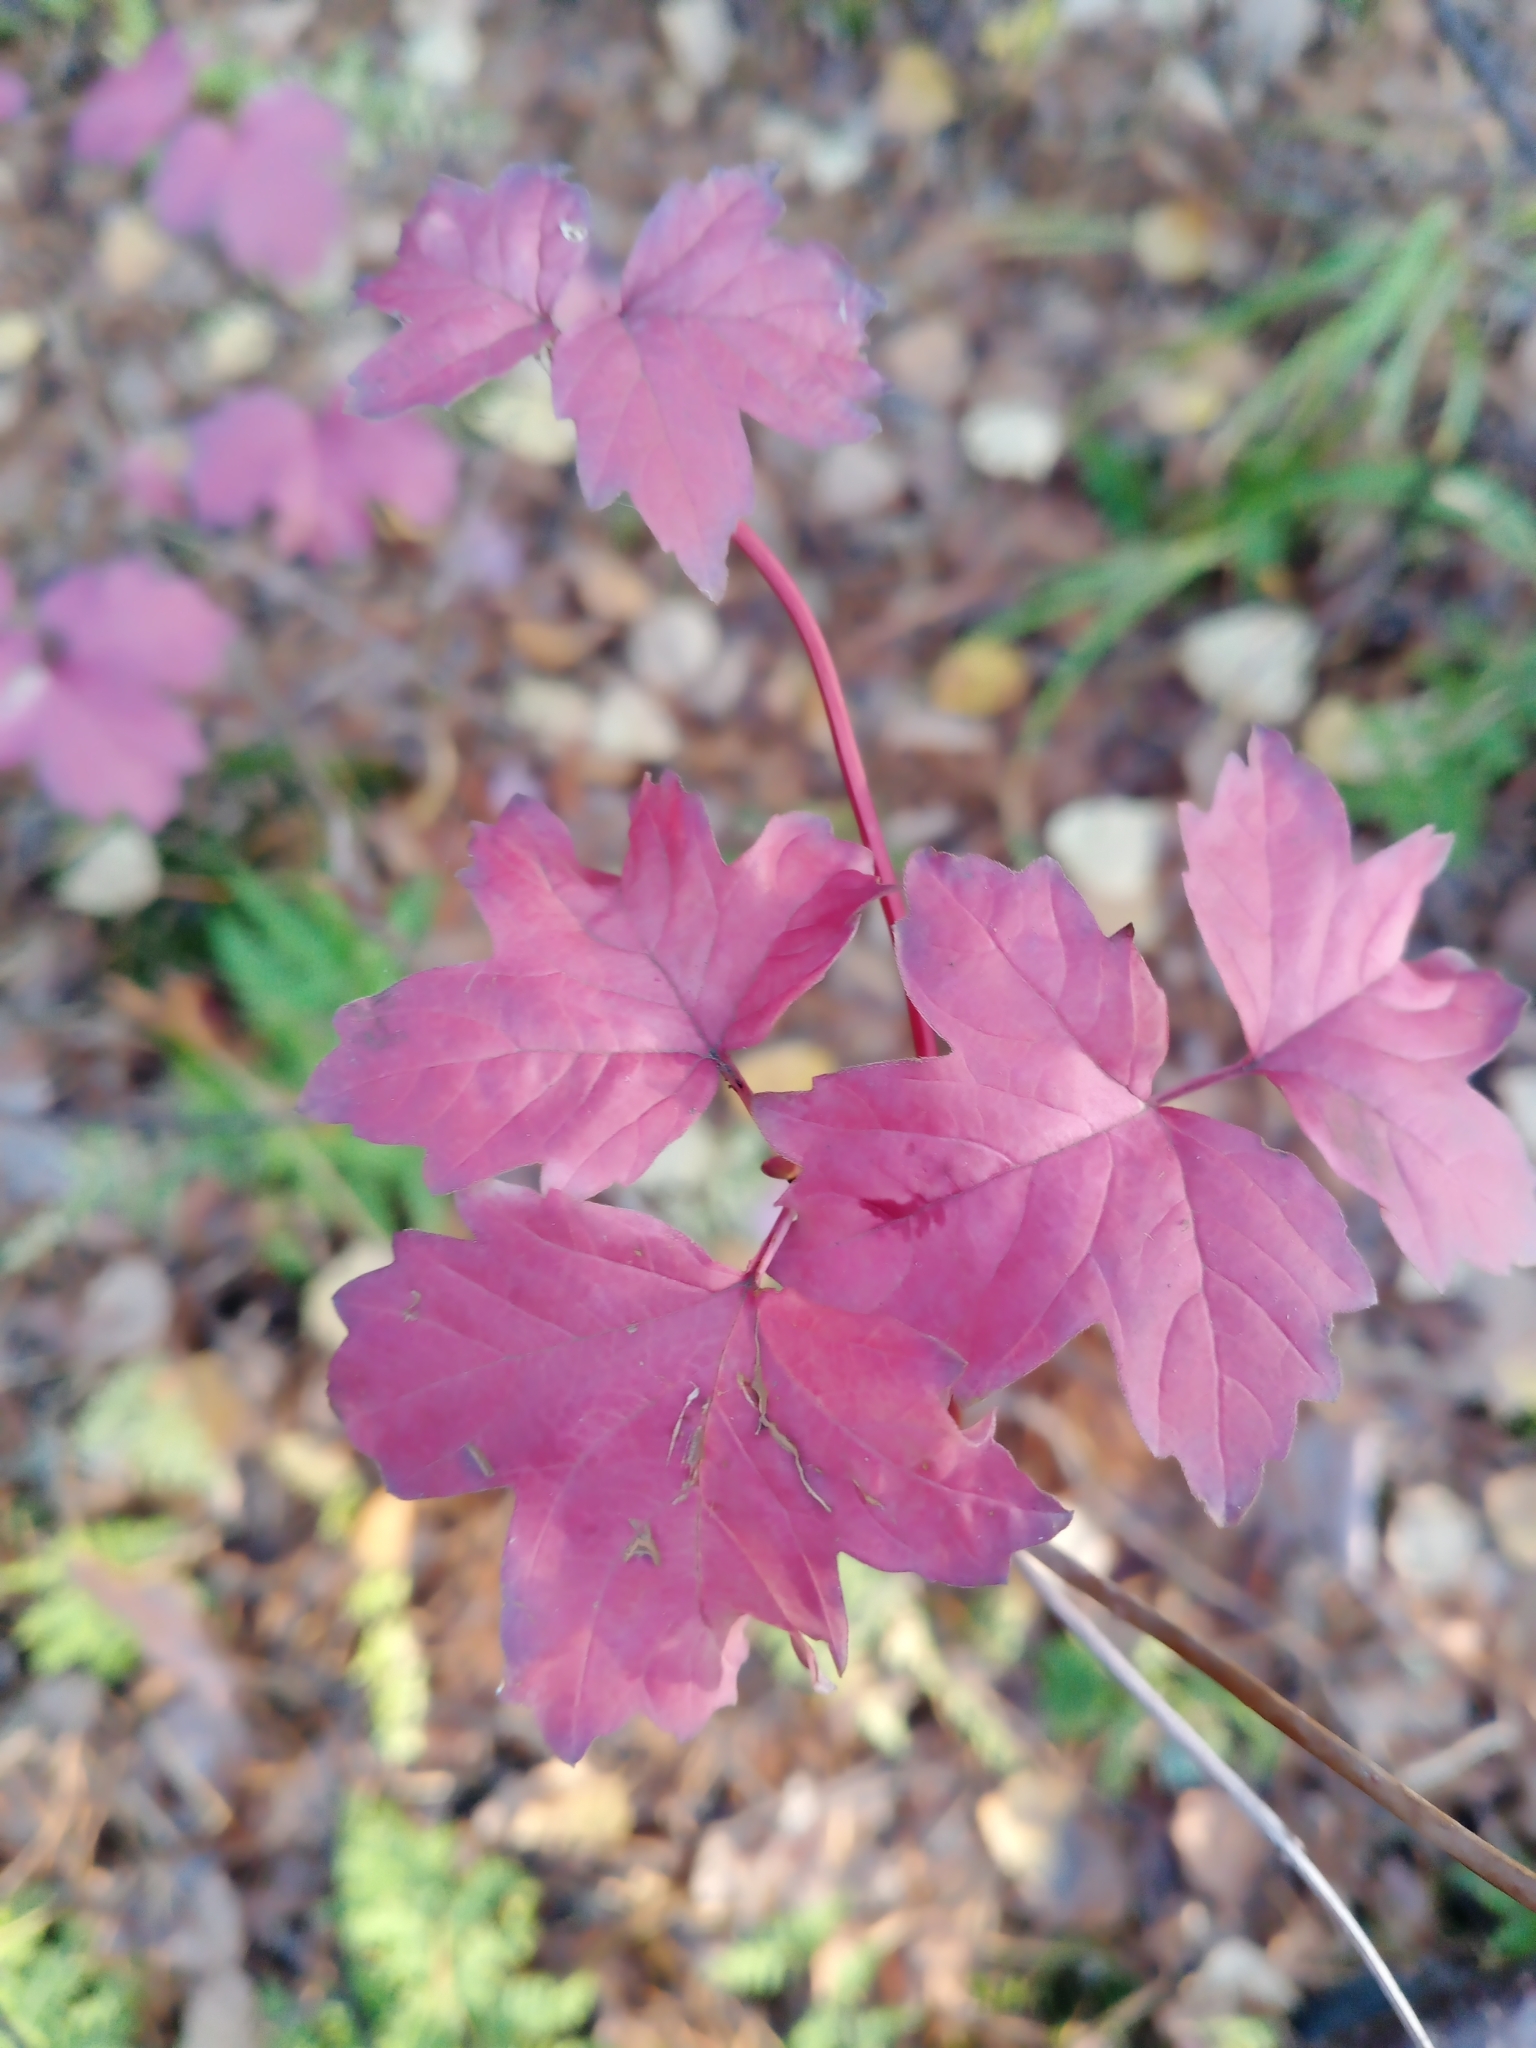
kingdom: Plantae
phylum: Tracheophyta
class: Magnoliopsida
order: Dipsacales
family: Viburnaceae
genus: Viburnum
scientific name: Viburnum opulus
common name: Guelder-rose
